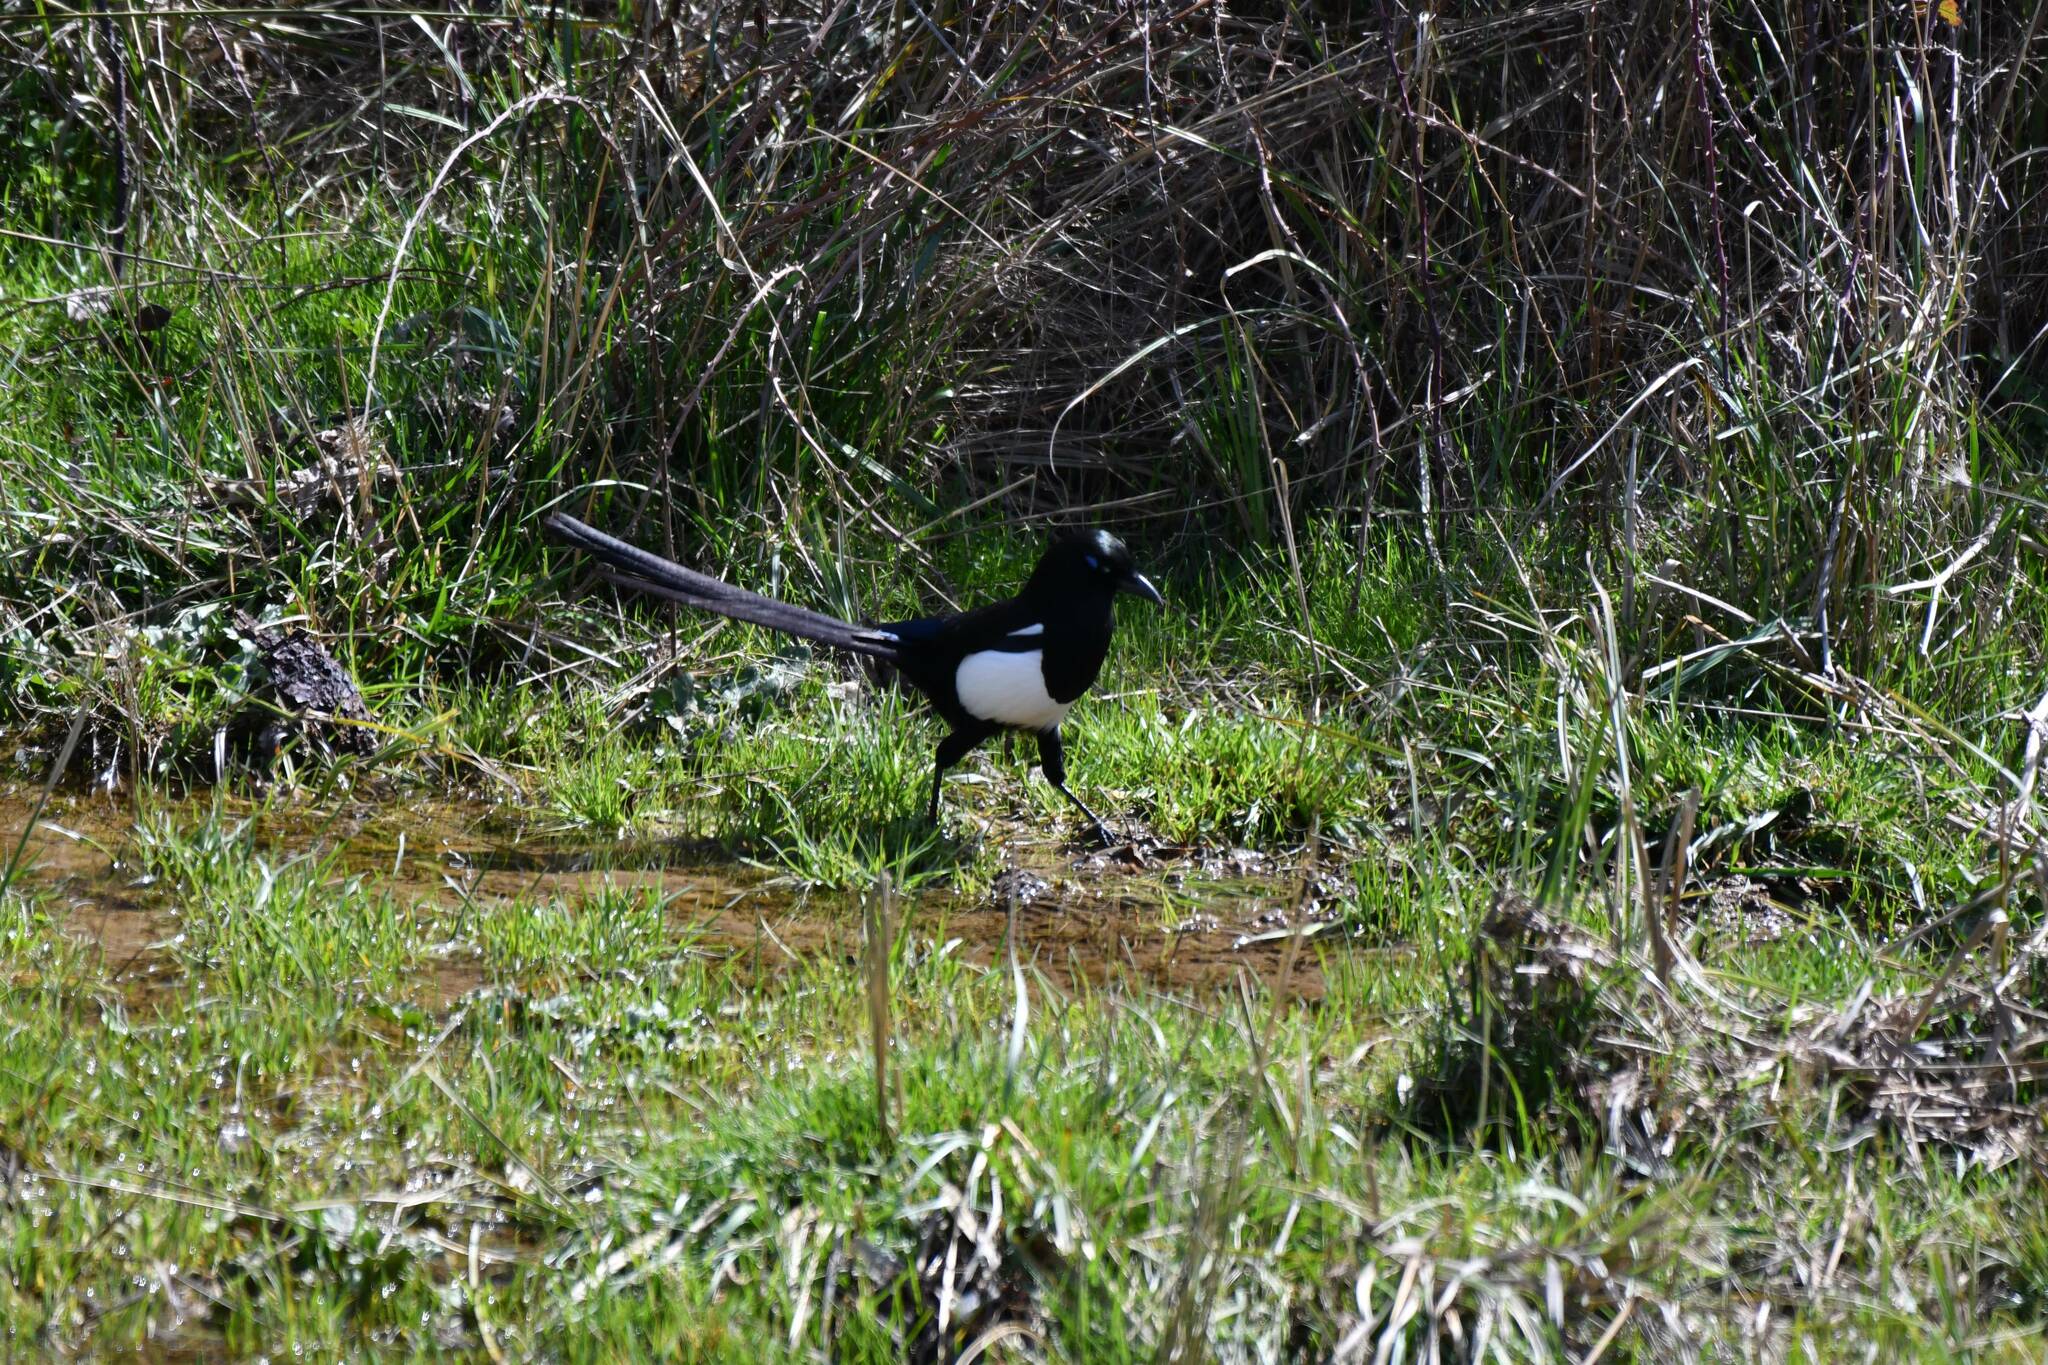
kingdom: Animalia
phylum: Chordata
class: Aves
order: Passeriformes
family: Corvidae
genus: Pica
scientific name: Pica mauritanica
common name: Maghreb magpie
